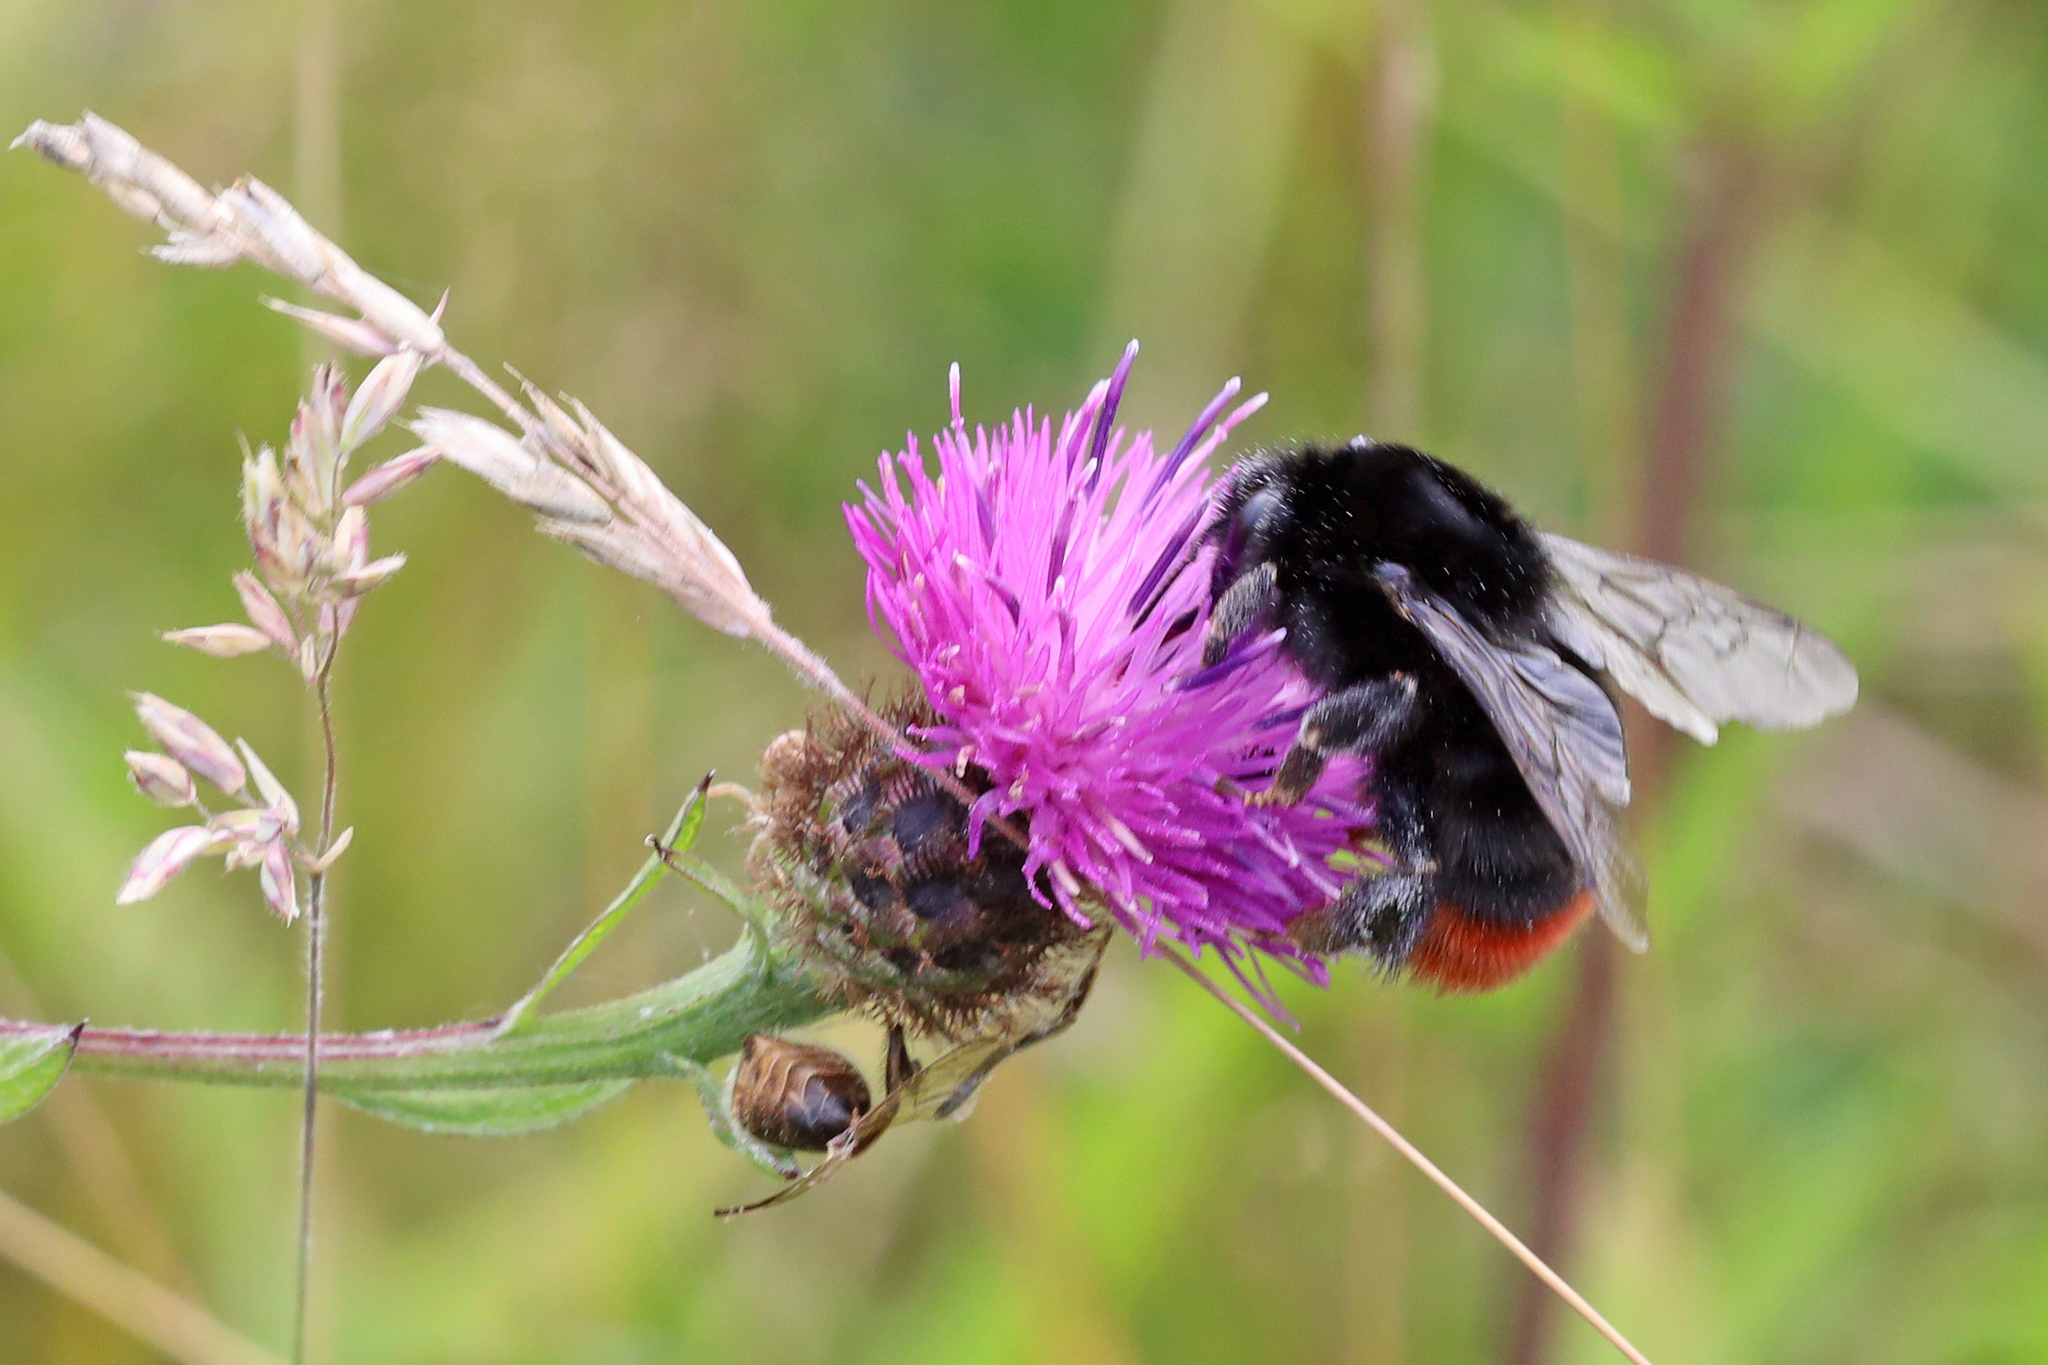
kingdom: Animalia
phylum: Arthropoda
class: Insecta
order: Hymenoptera
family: Apidae
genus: Bombus
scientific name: Bombus lapidarius
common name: Large red-tailed humble-bee
